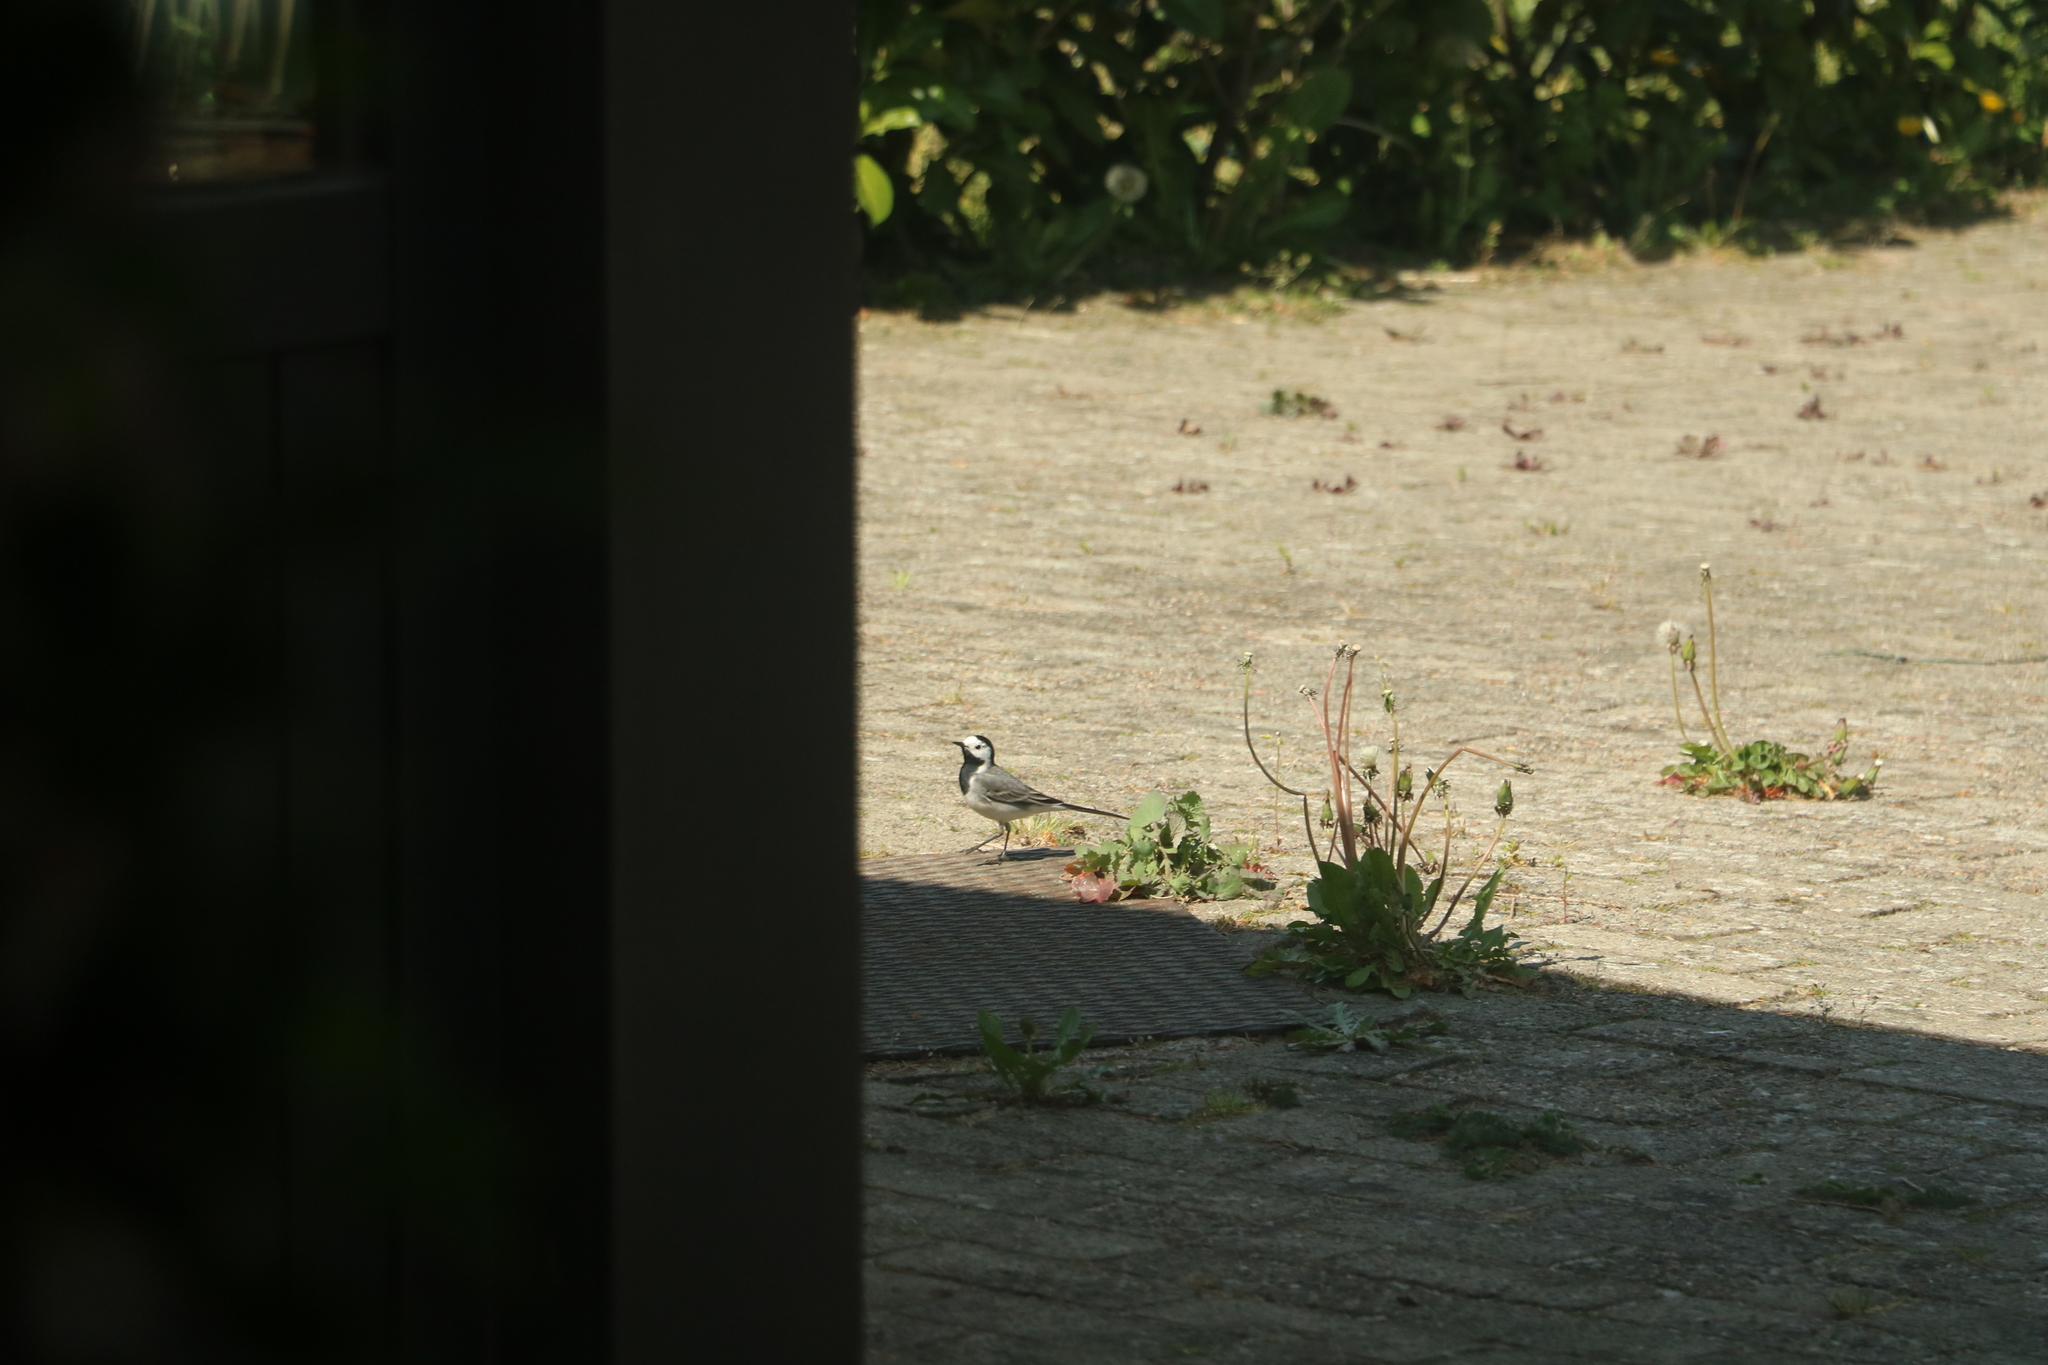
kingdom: Animalia
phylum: Chordata
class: Aves
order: Passeriformes
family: Motacillidae
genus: Motacilla
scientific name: Motacilla alba
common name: White wagtail
